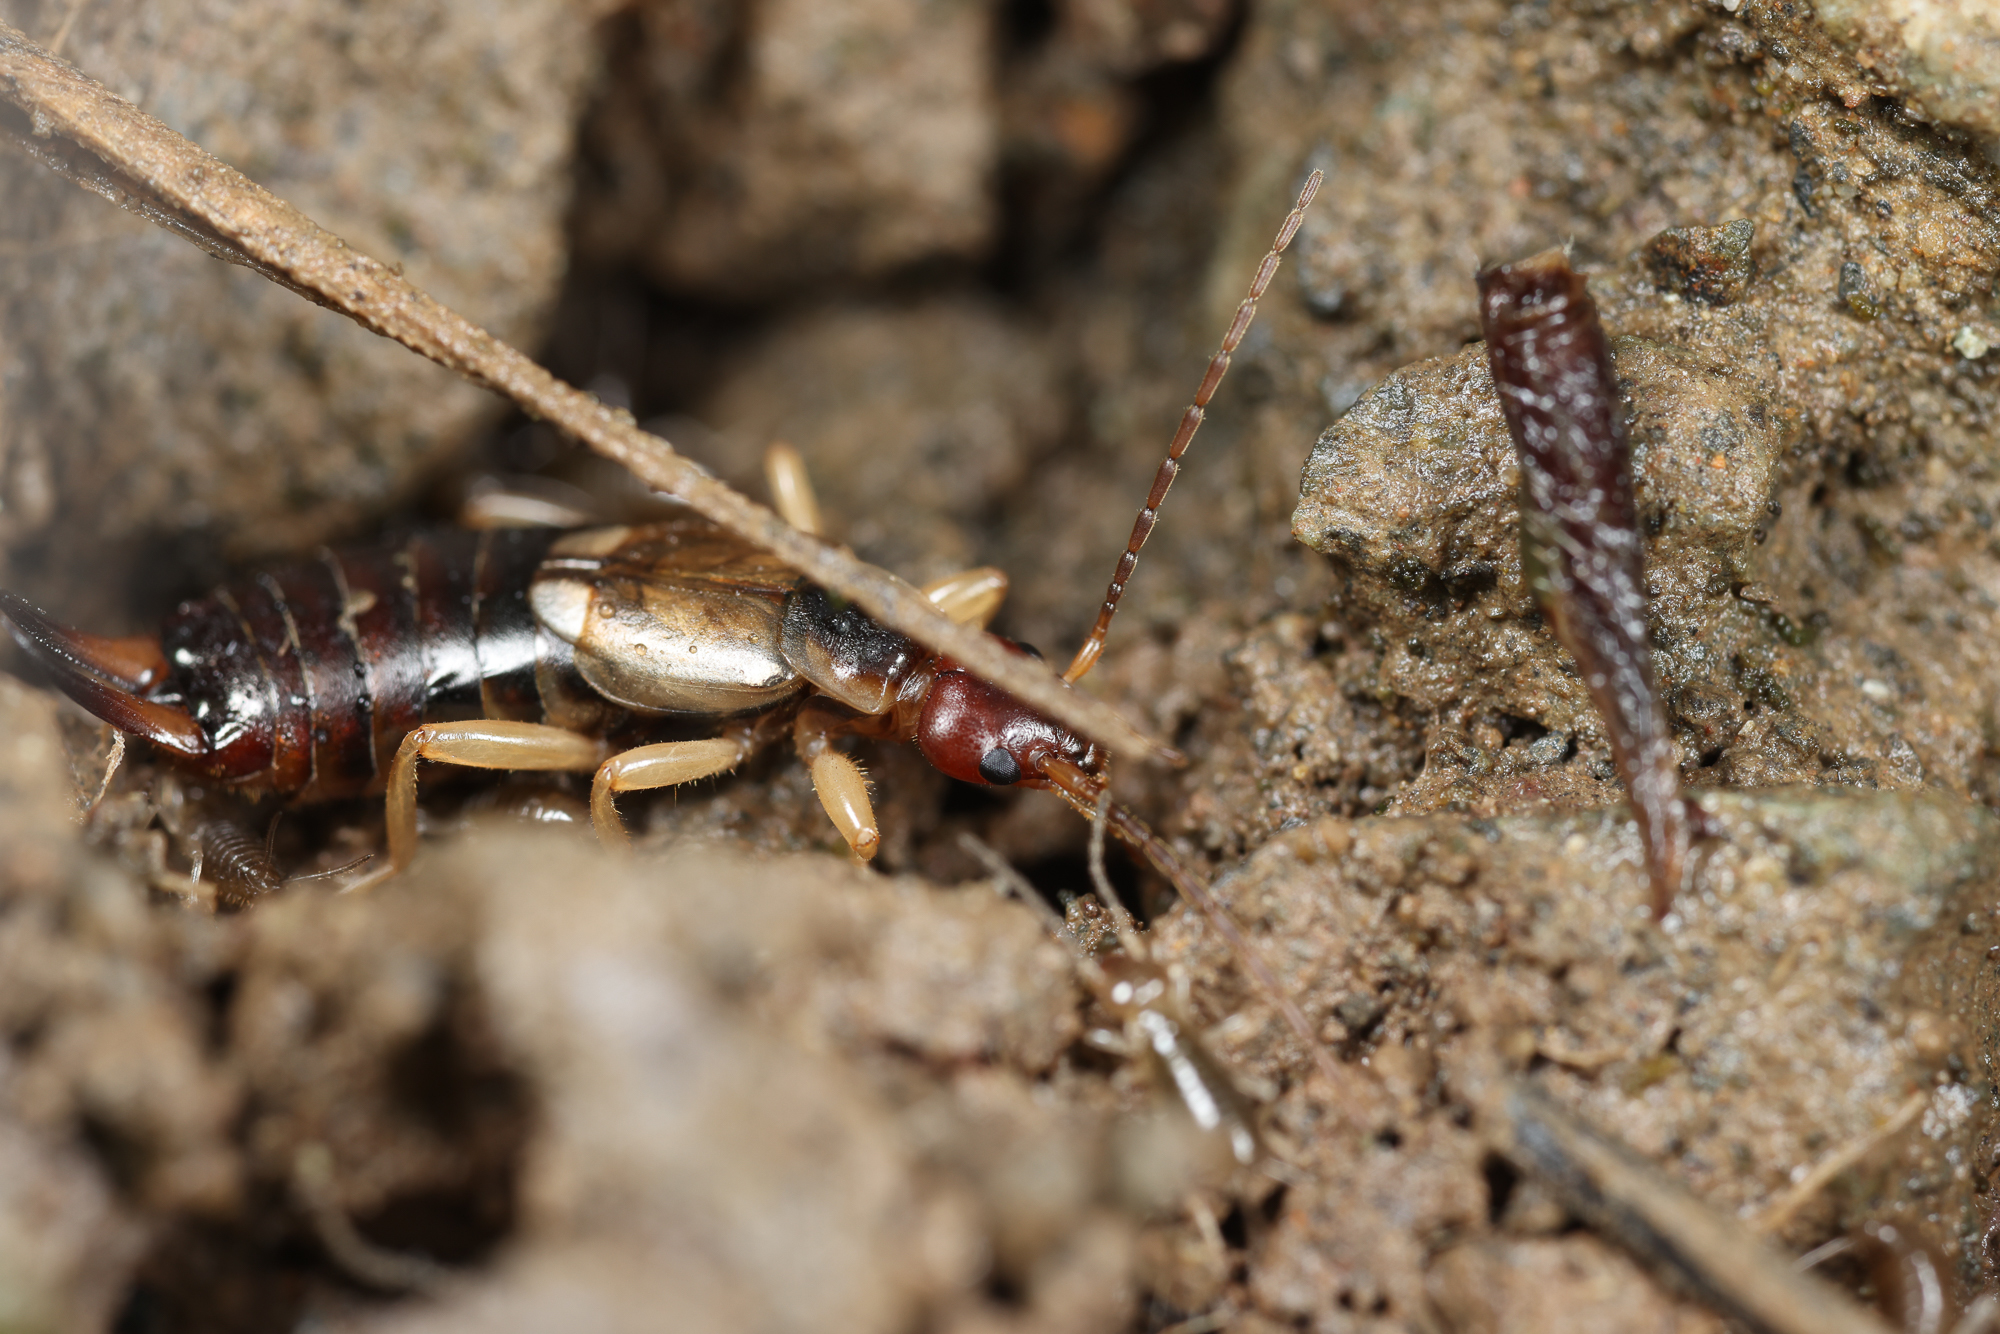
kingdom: Animalia
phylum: Arthropoda
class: Insecta
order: Dermaptera
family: Forficulidae
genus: Forficula
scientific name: Forficula
